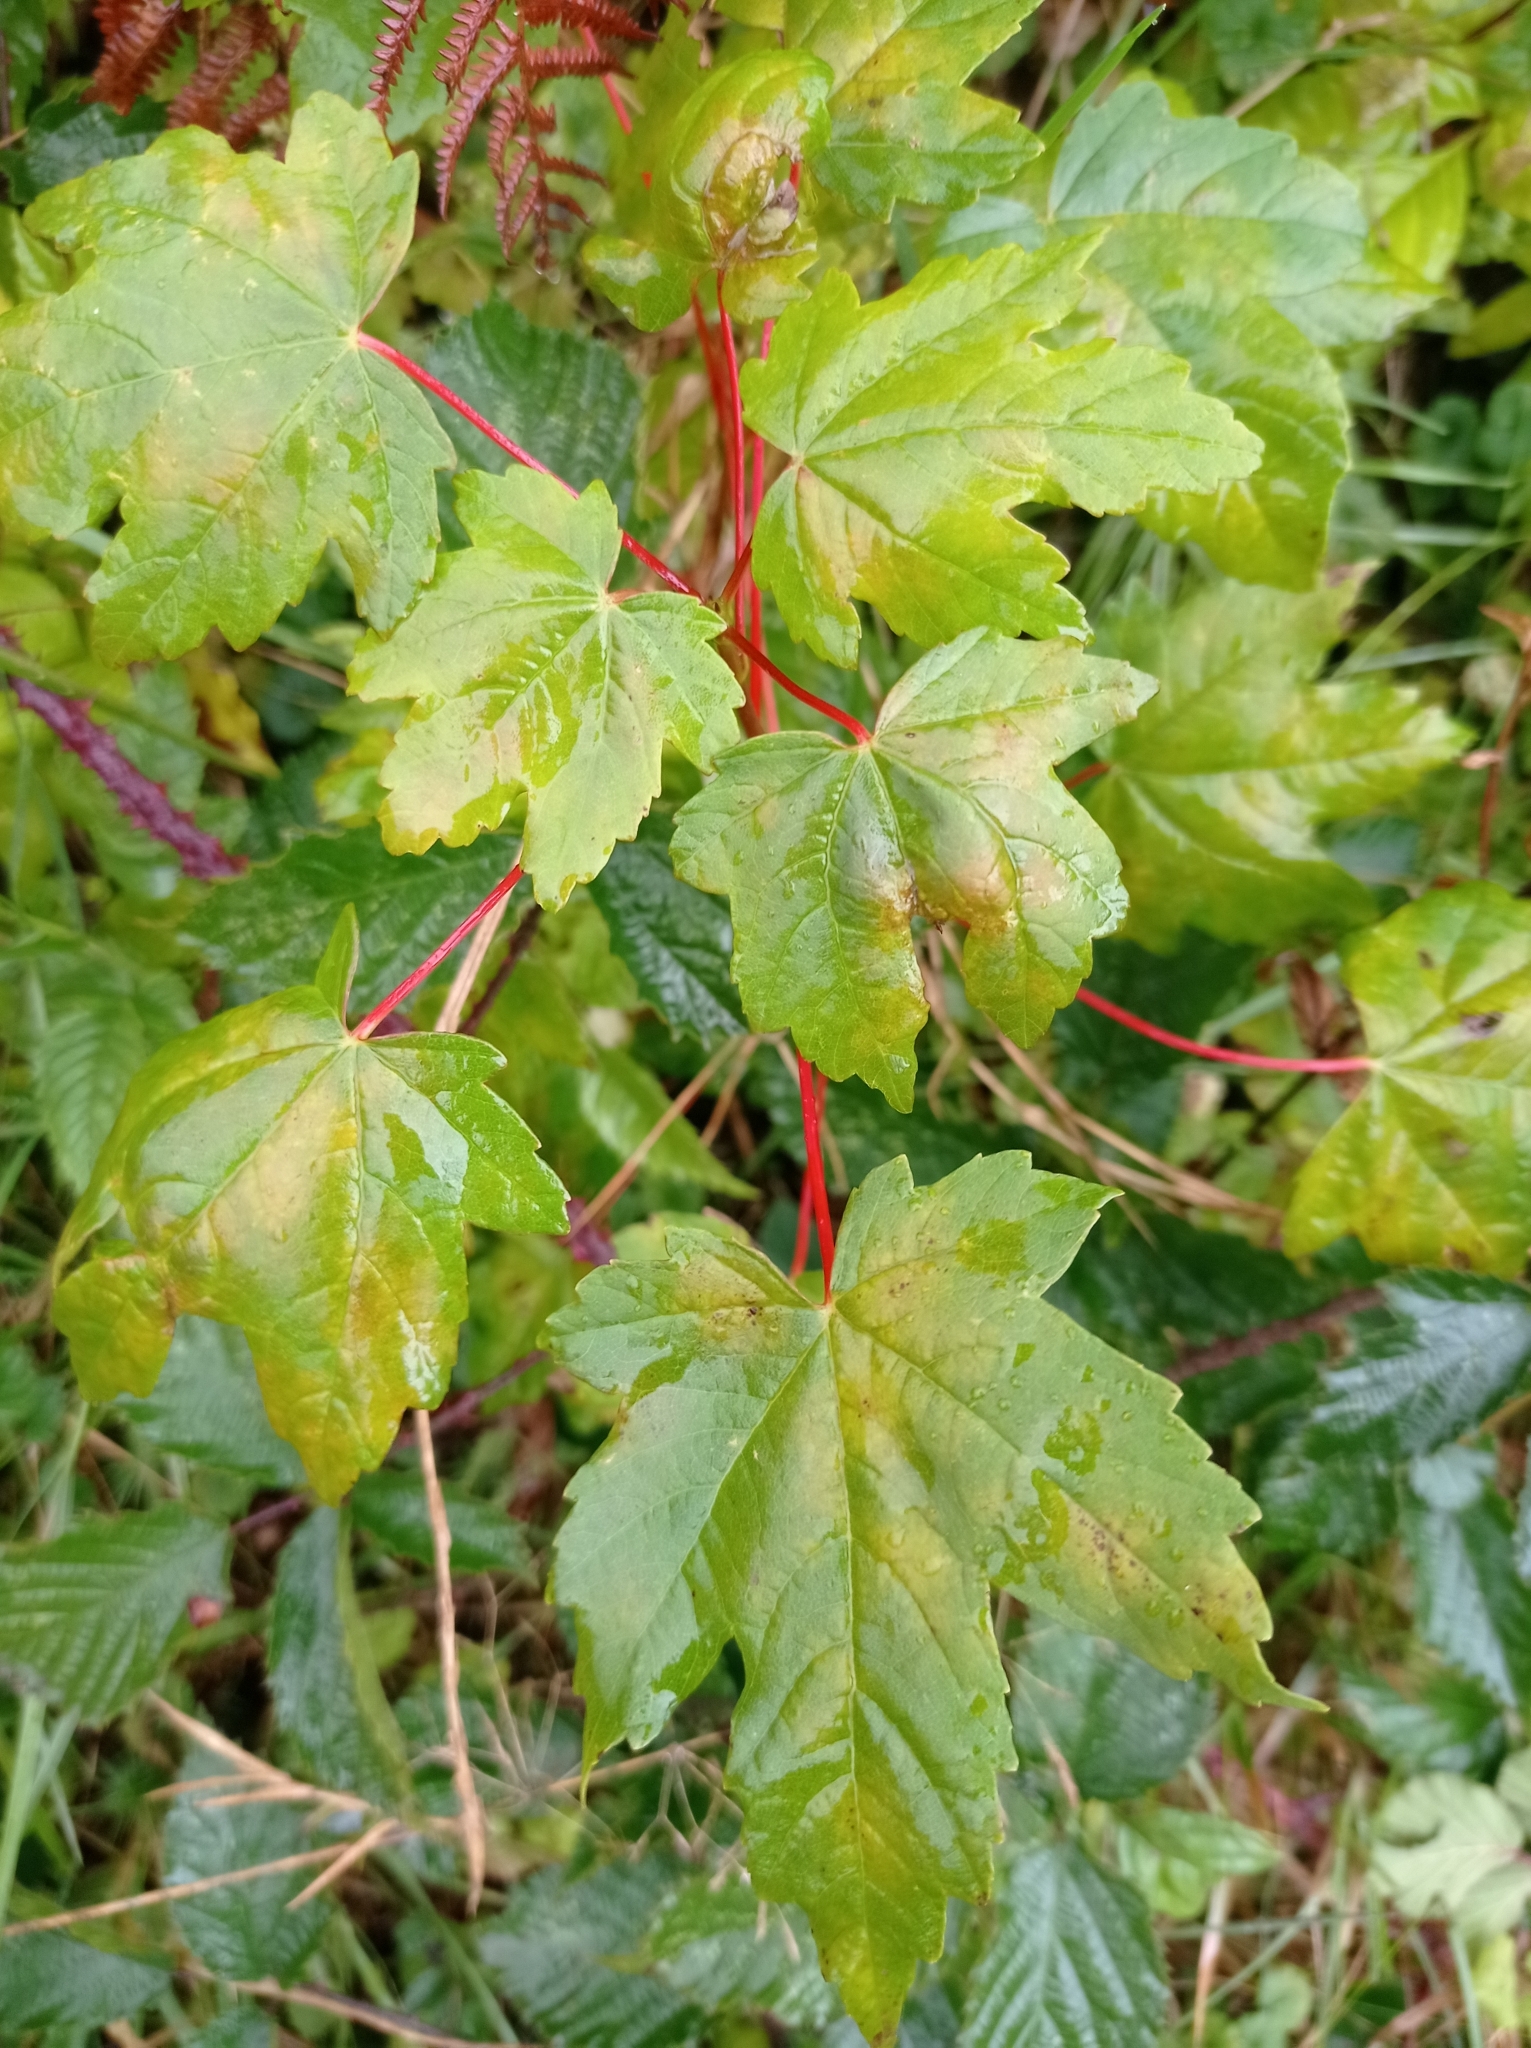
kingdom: Plantae
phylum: Tracheophyta
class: Magnoliopsida
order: Sapindales
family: Sapindaceae
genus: Acer
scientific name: Acer pseudoplatanus
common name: Sycamore
